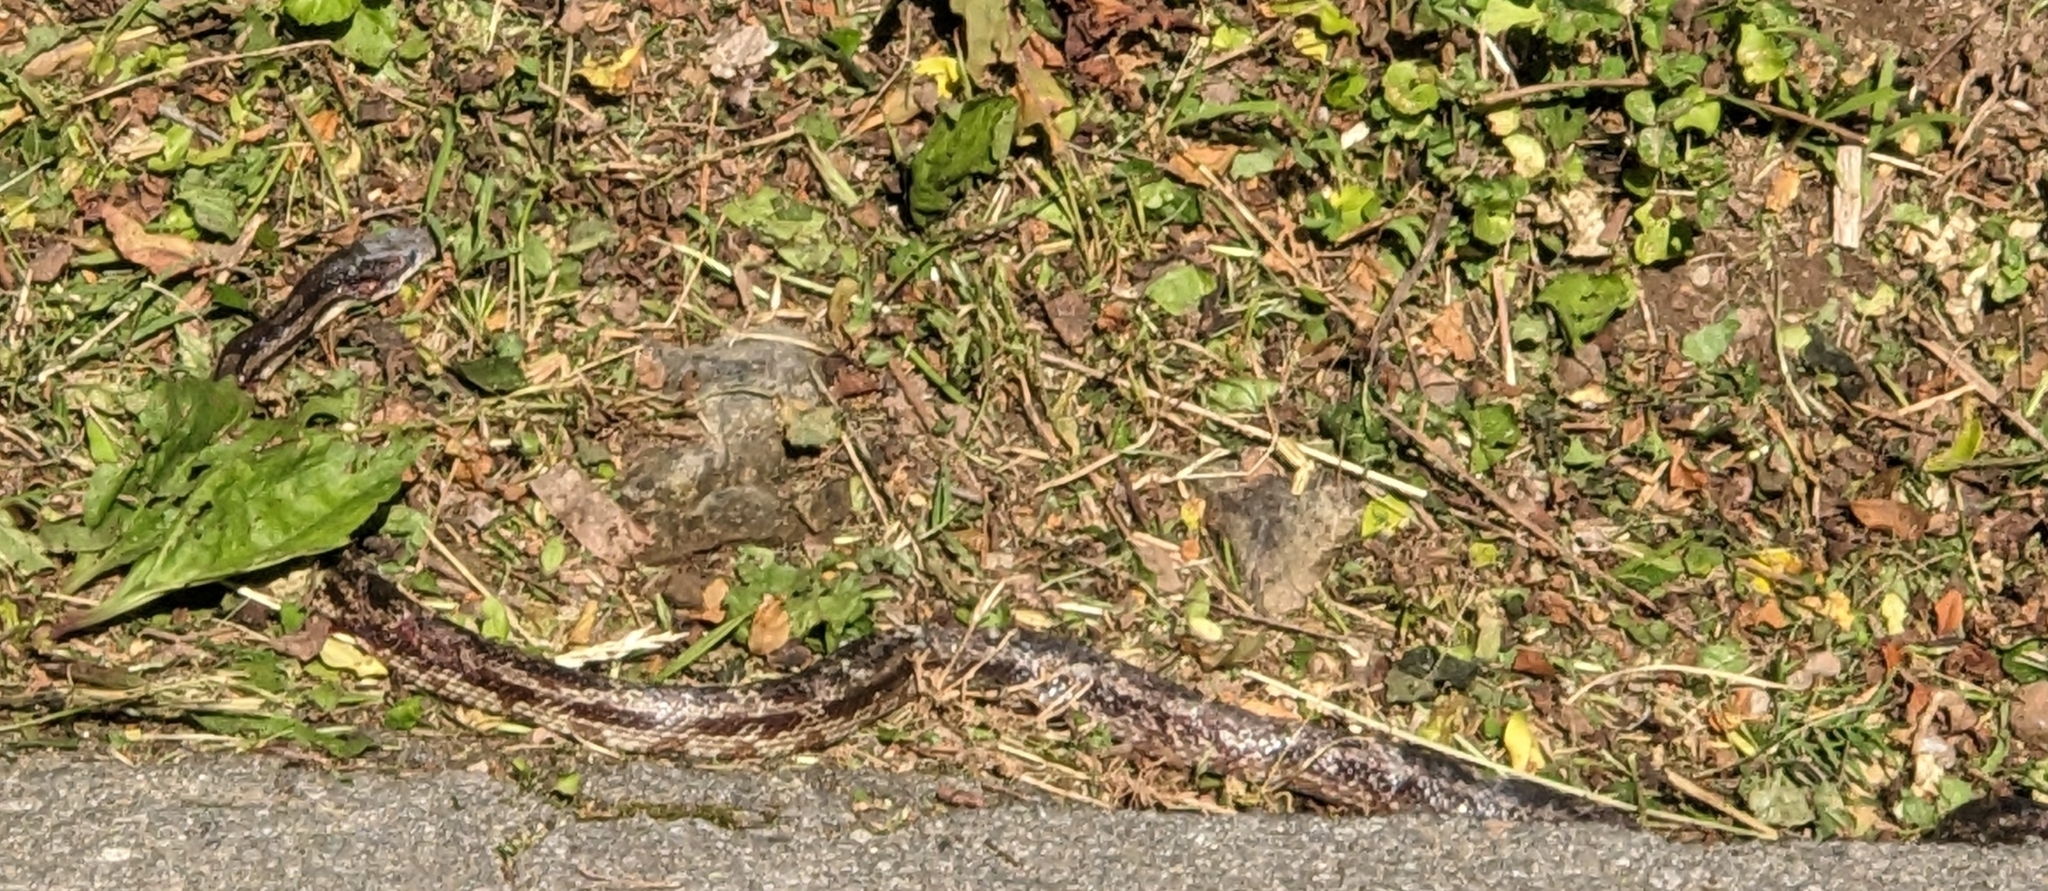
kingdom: Animalia
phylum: Chordata
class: Squamata
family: Colubridae
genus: Pantherophis
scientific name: Pantherophis spiloides
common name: Gray rat snake
